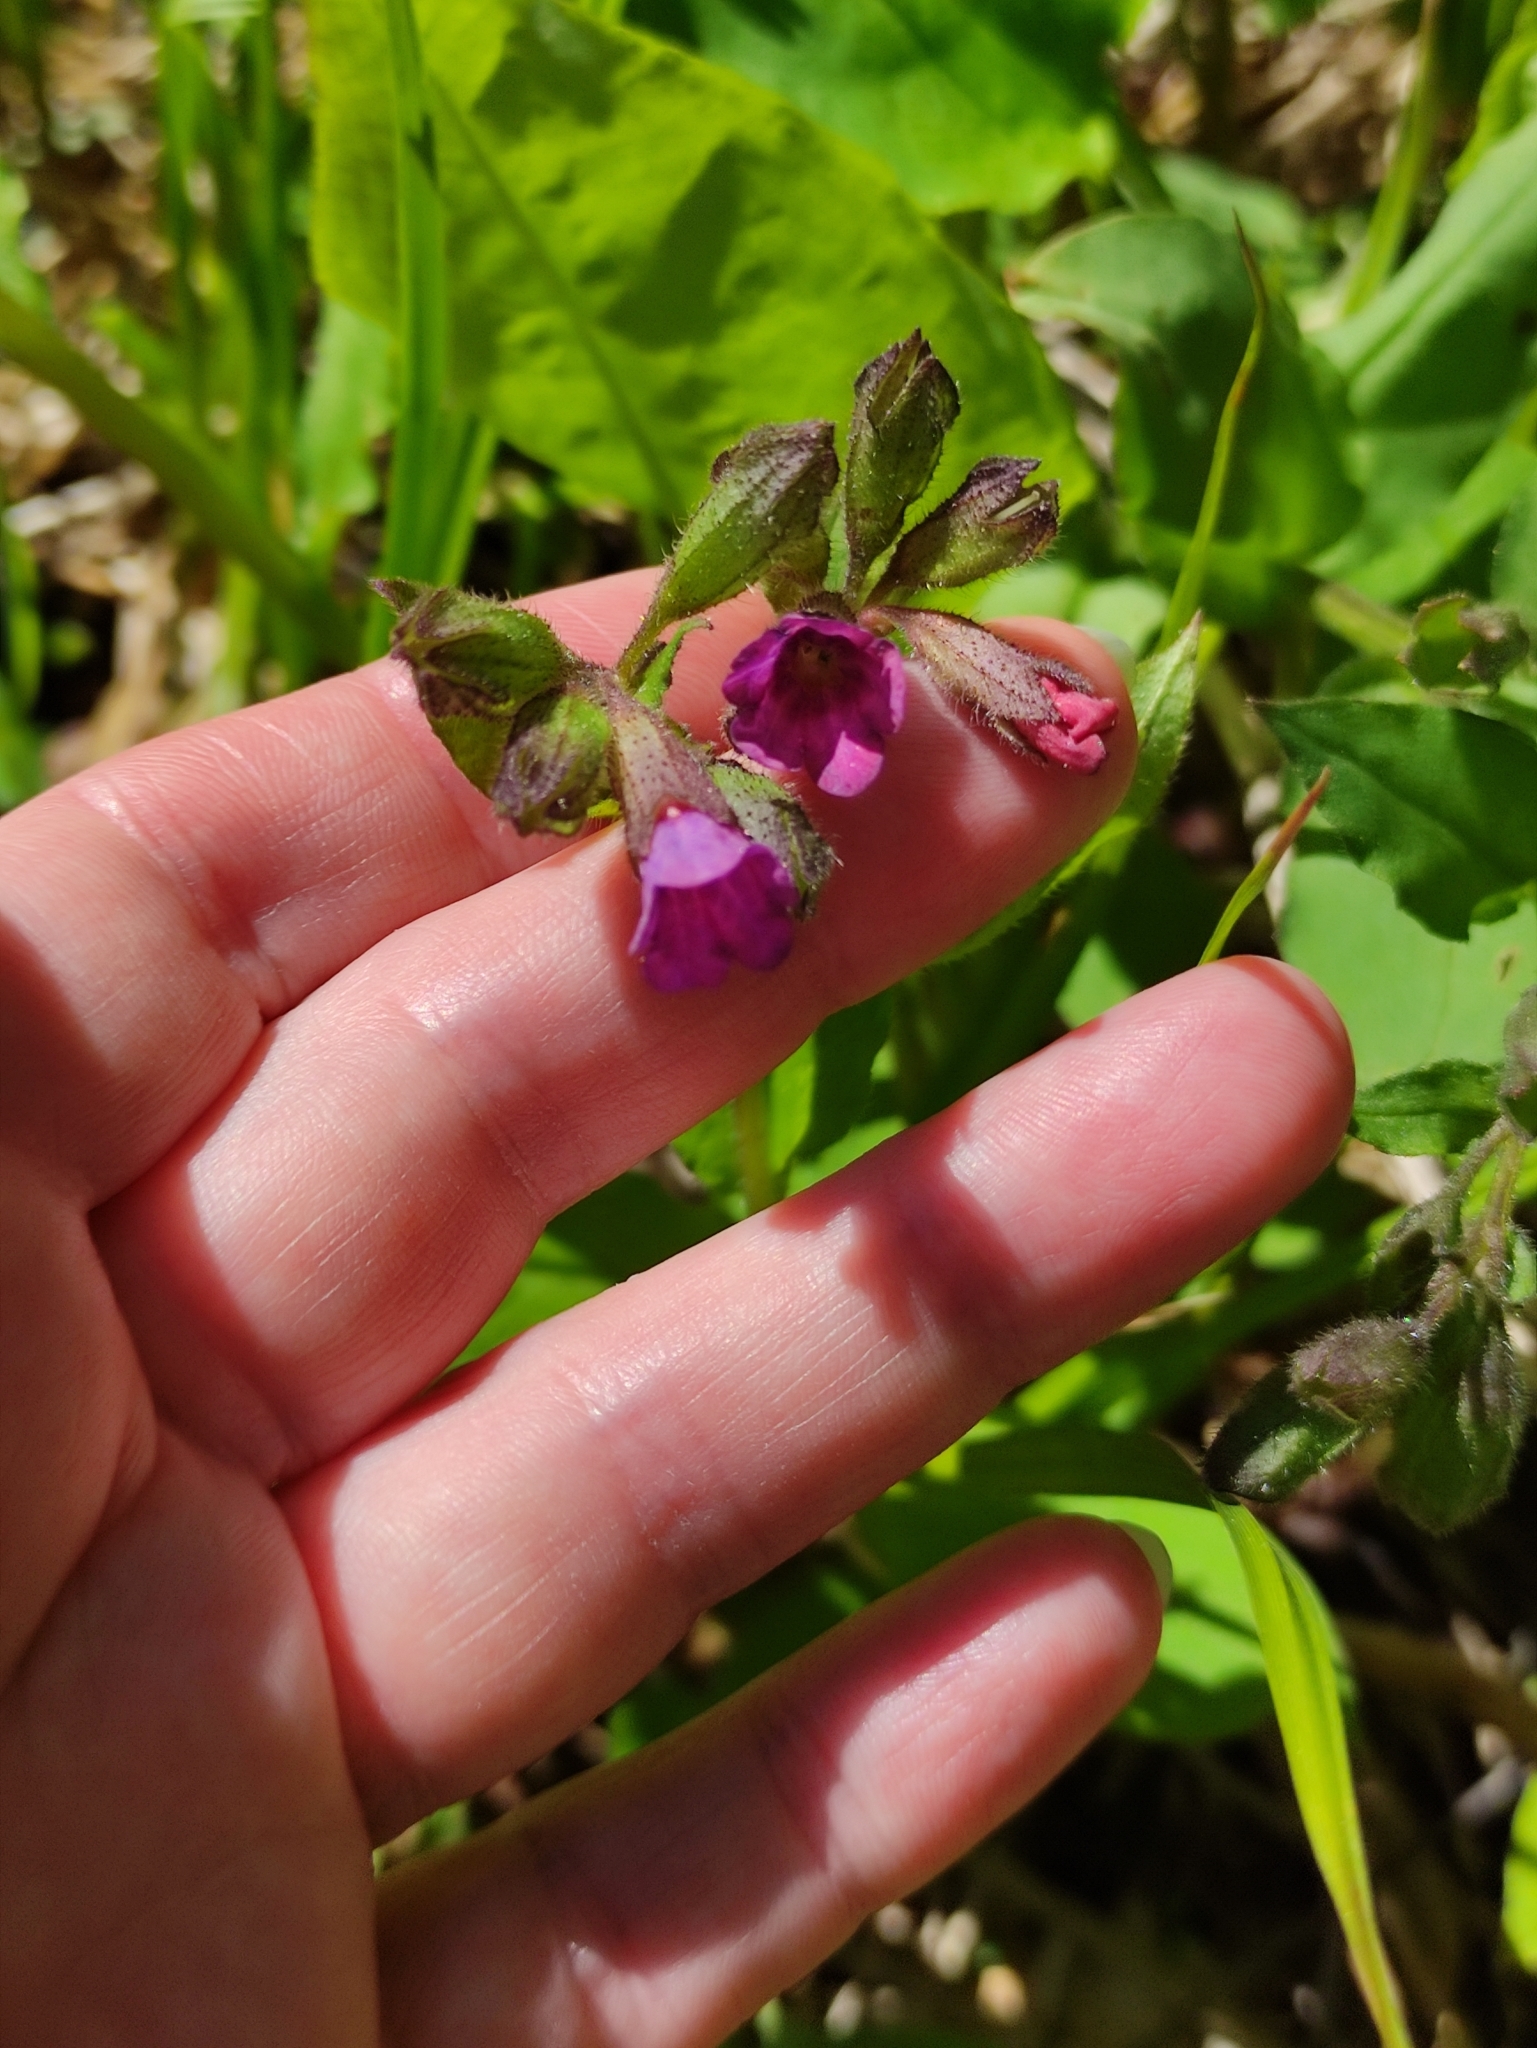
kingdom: Plantae
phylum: Tracheophyta
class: Magnoliopsida
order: Boraginales
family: Boraginaceae
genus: Pulmonaria
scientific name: Pulmonaria obscura
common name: Suffolk lungwort
